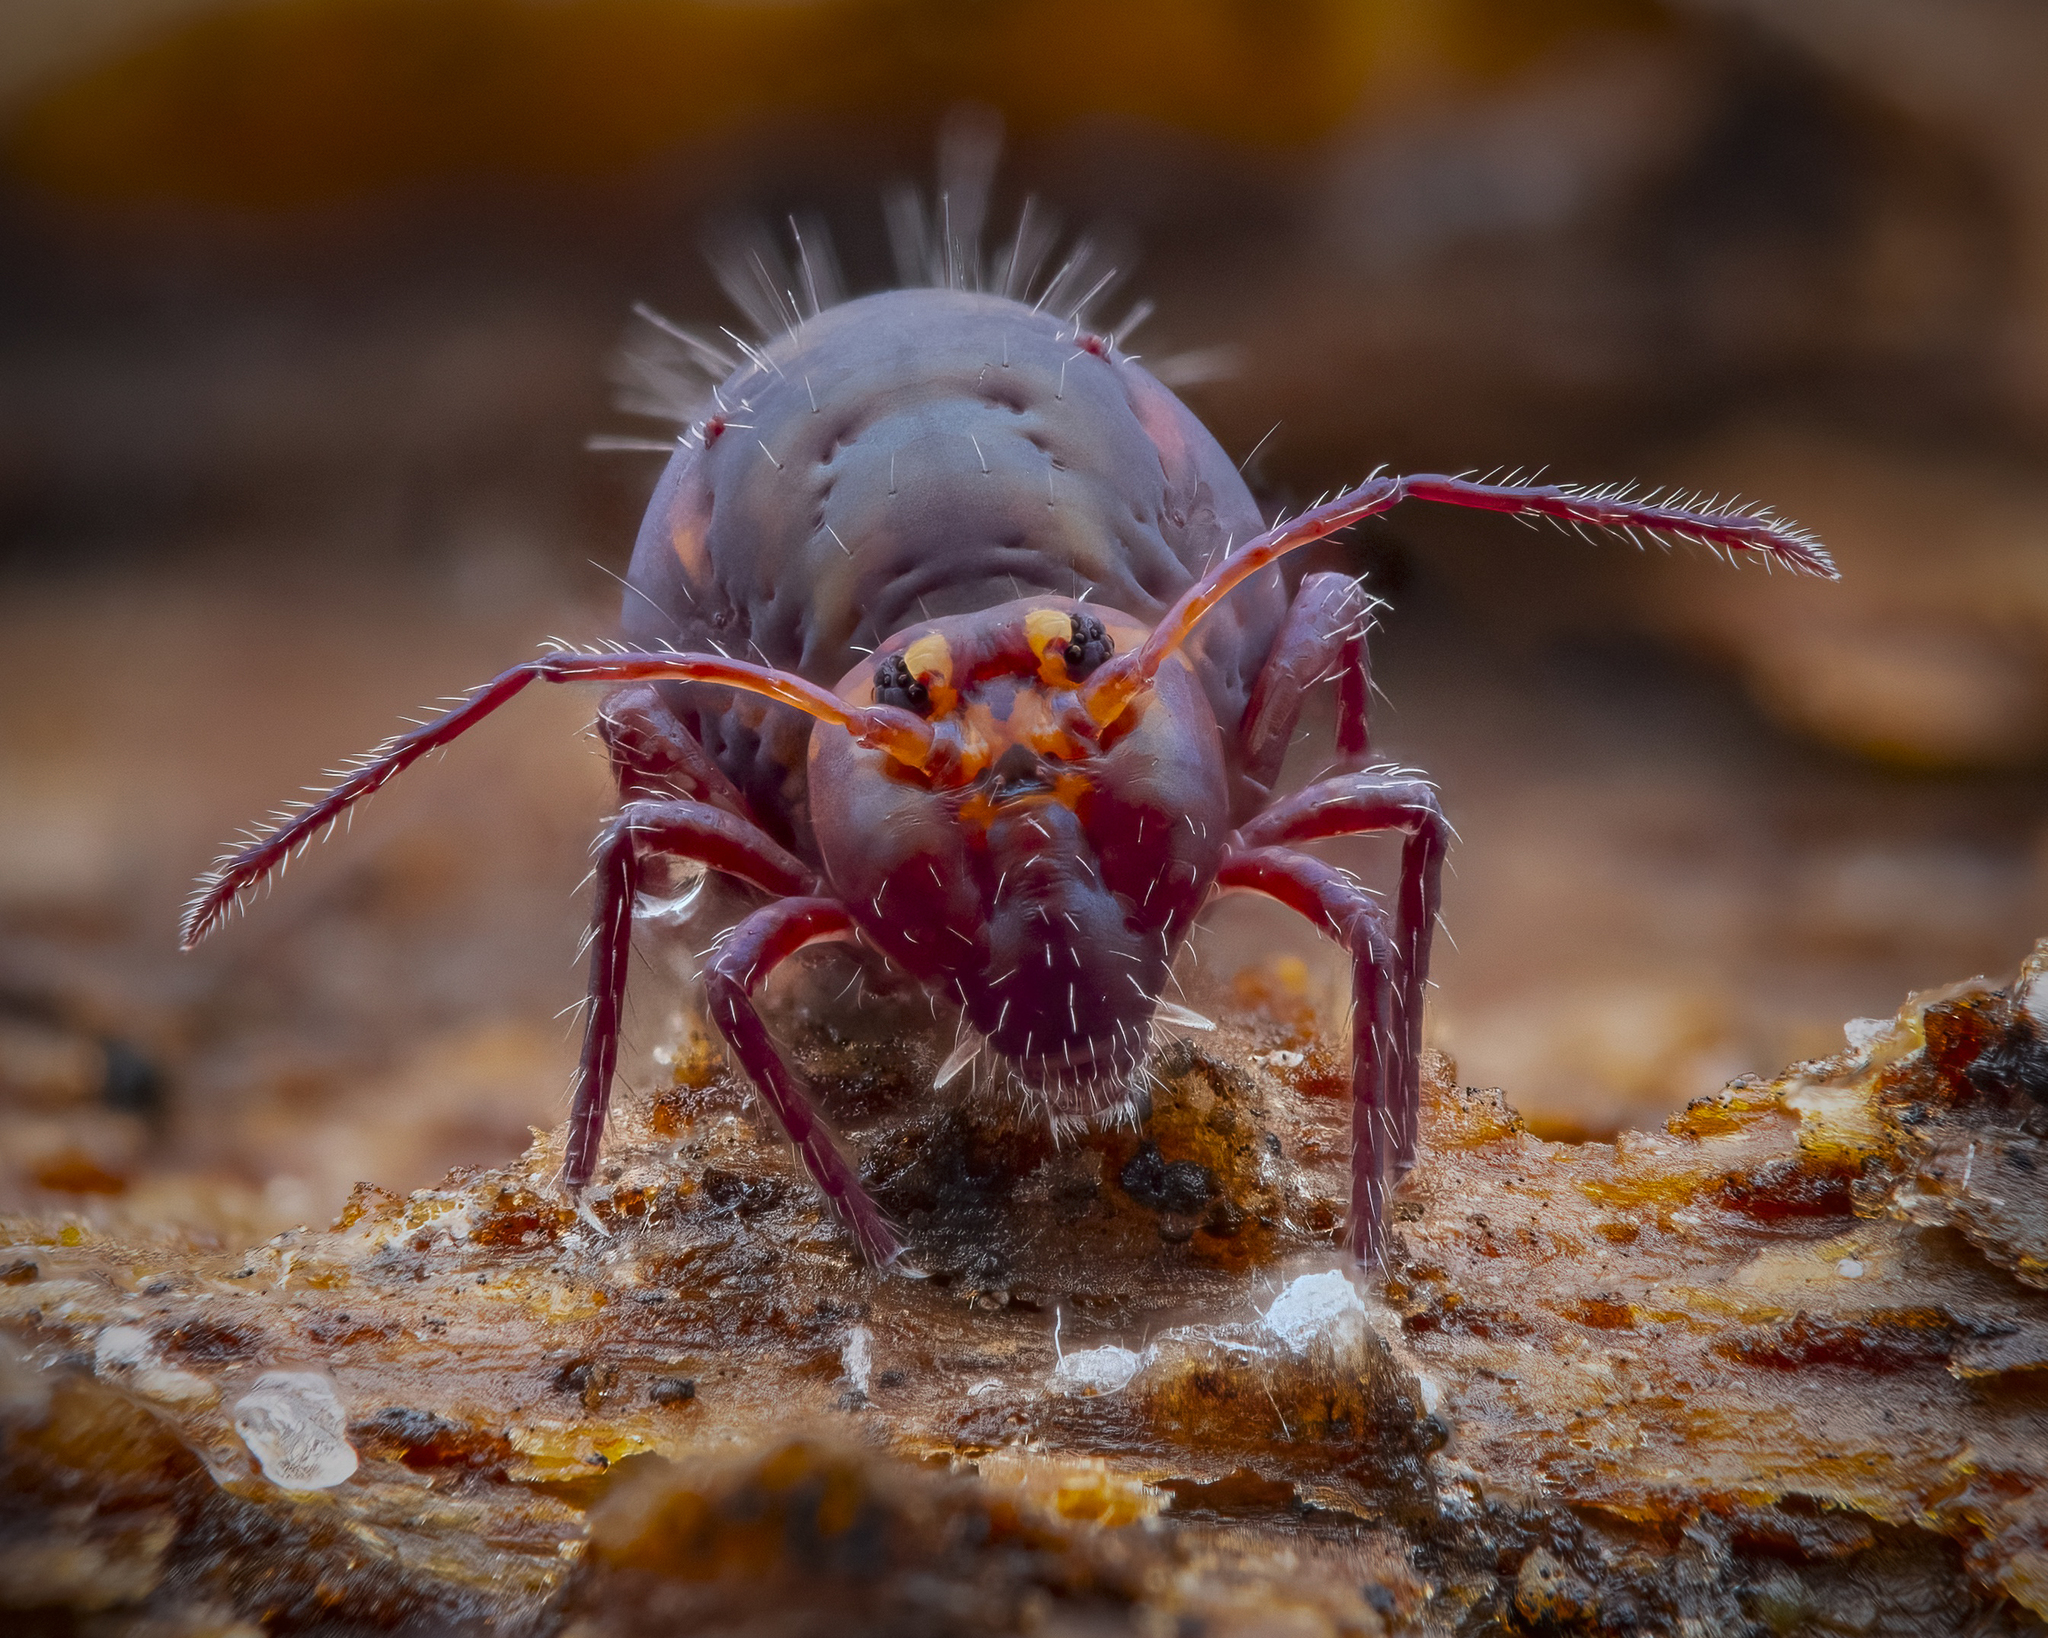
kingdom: Animalia
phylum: Arthropoda
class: Collembola
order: Symphypleona
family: Dicyrtomidae
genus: Dicyrtoma
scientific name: Dicyrtoma fusca
